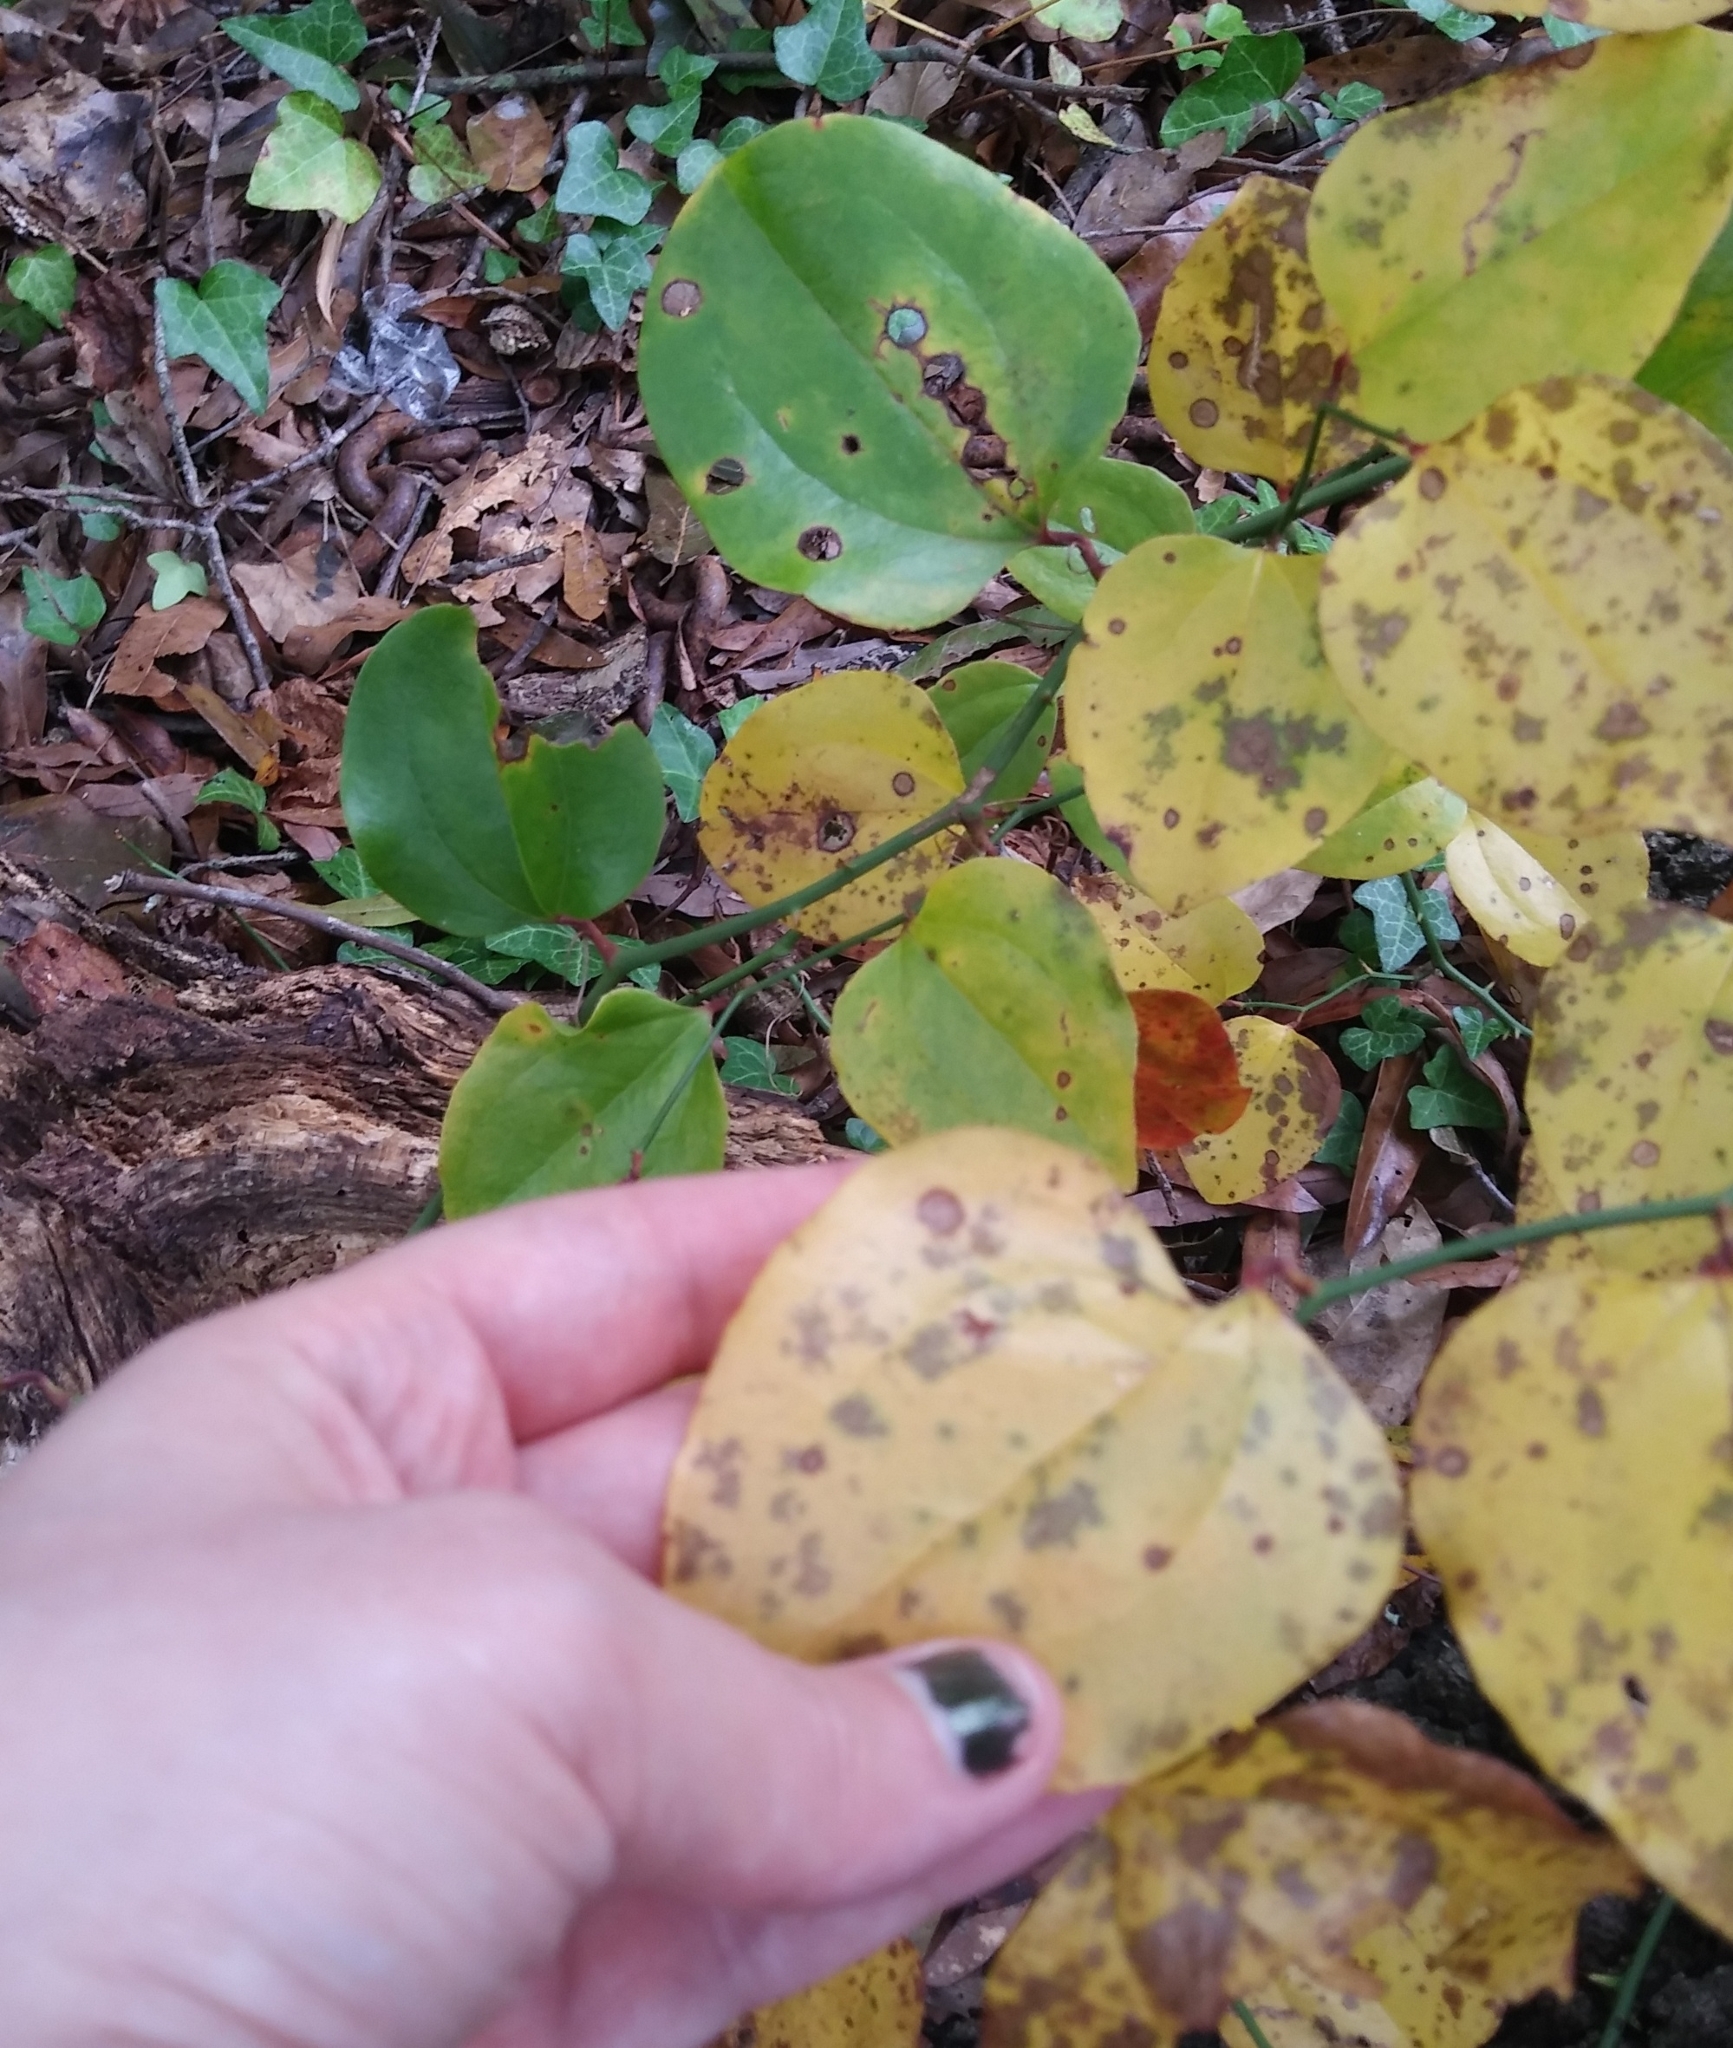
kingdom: Plantae
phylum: Tracheophyta
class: Liliopsida
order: Liliales
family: Smilacaceae
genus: Smilax
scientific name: Smilax rotundifolia
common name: Bullbriar
